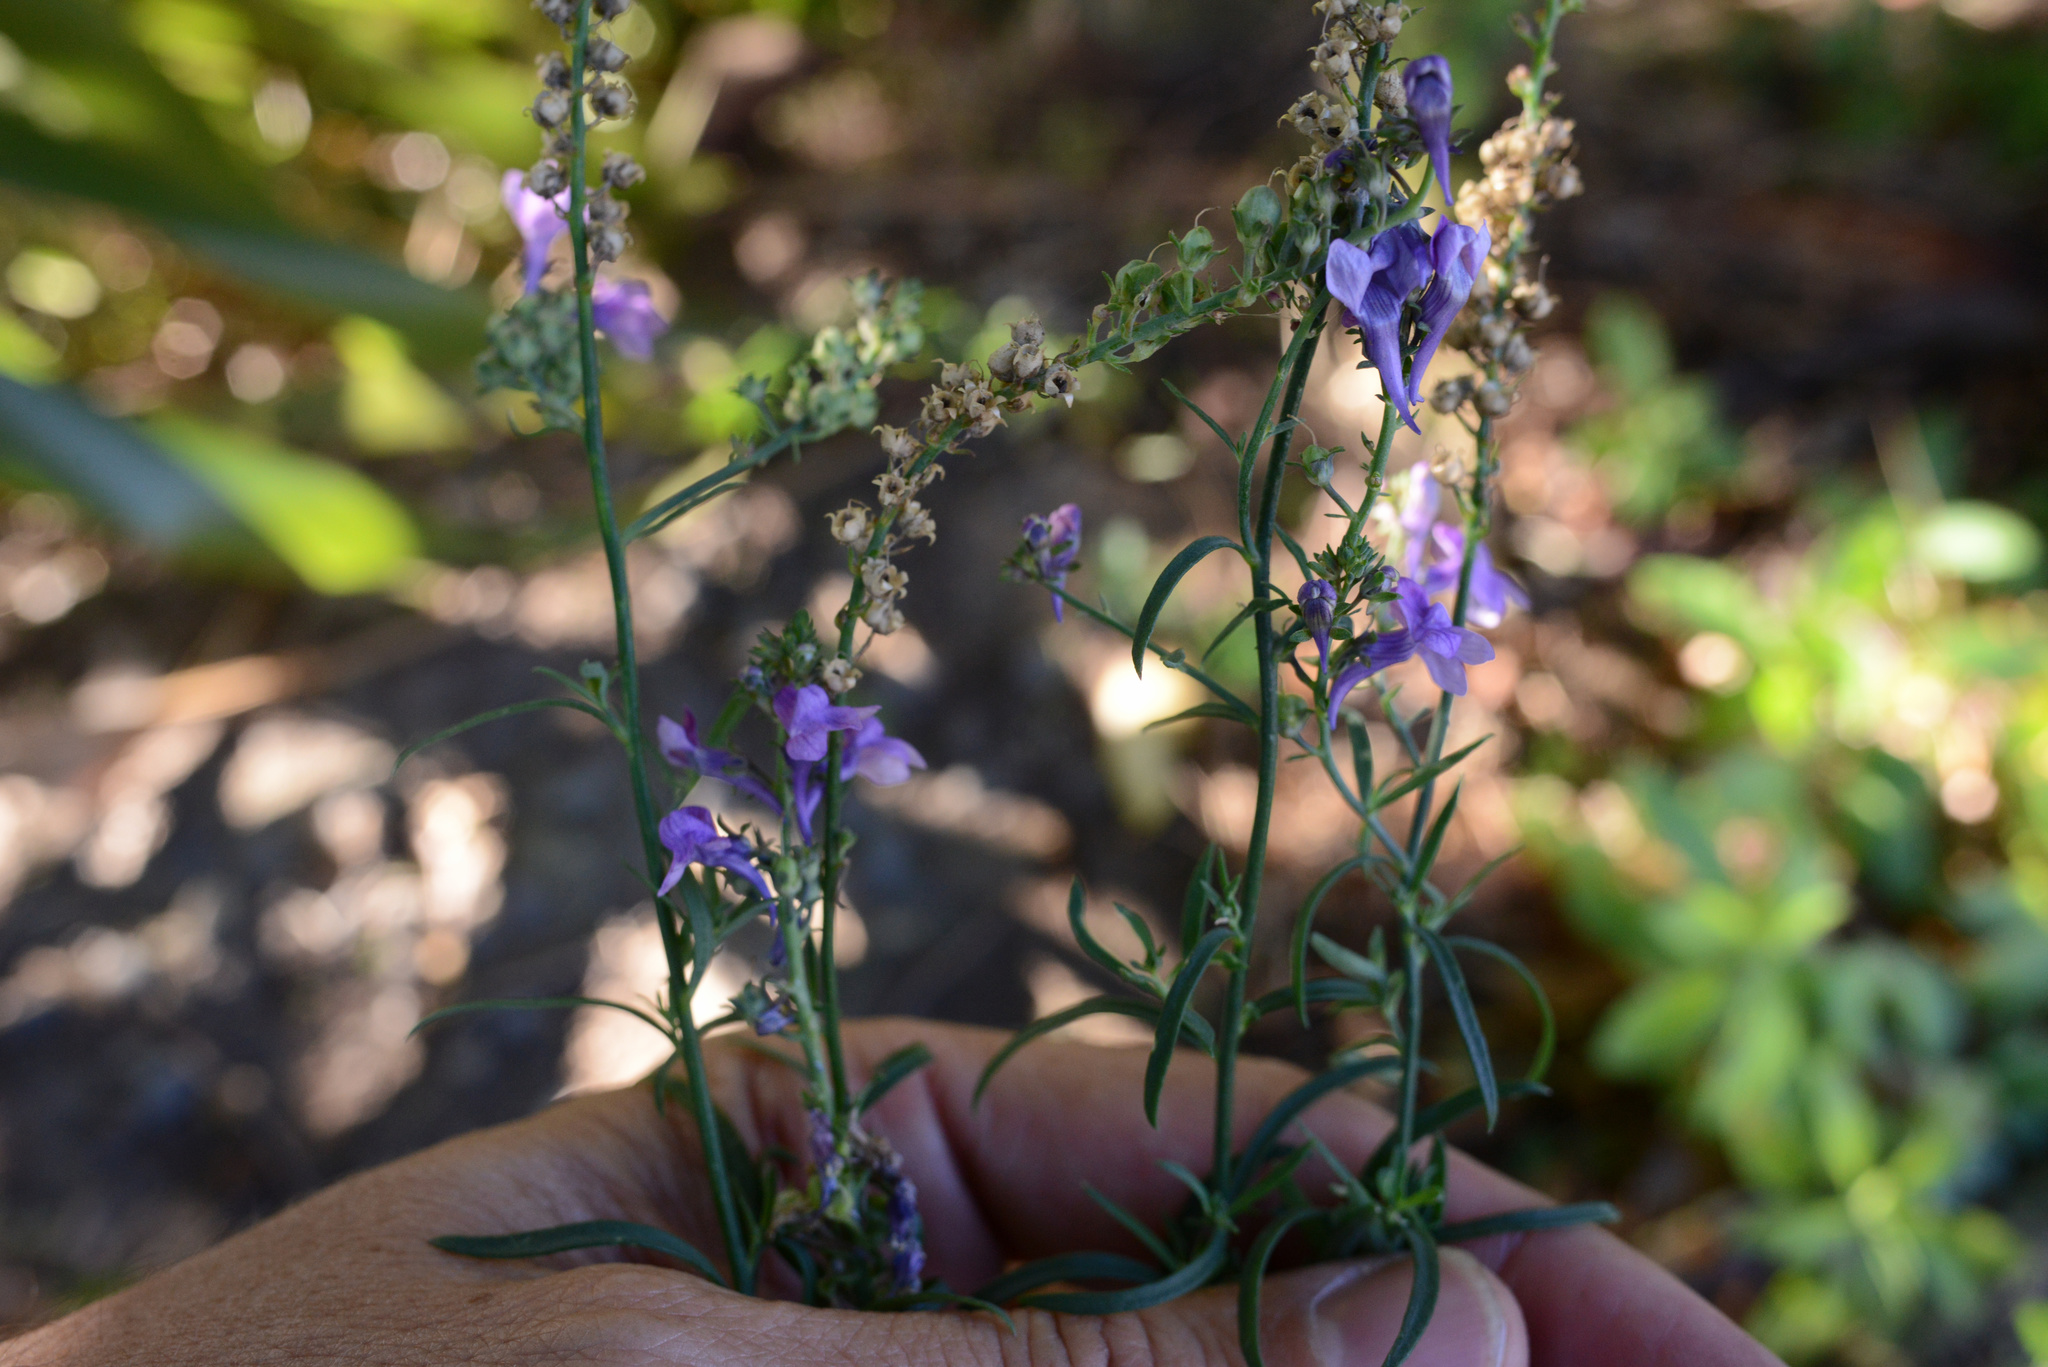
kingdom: Plantae
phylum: Tracheophyta
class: Magnoliopsida
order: Lamiales
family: Plantaginaceae
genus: Linaria
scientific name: Linaria purpurea
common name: Purple toadflax
